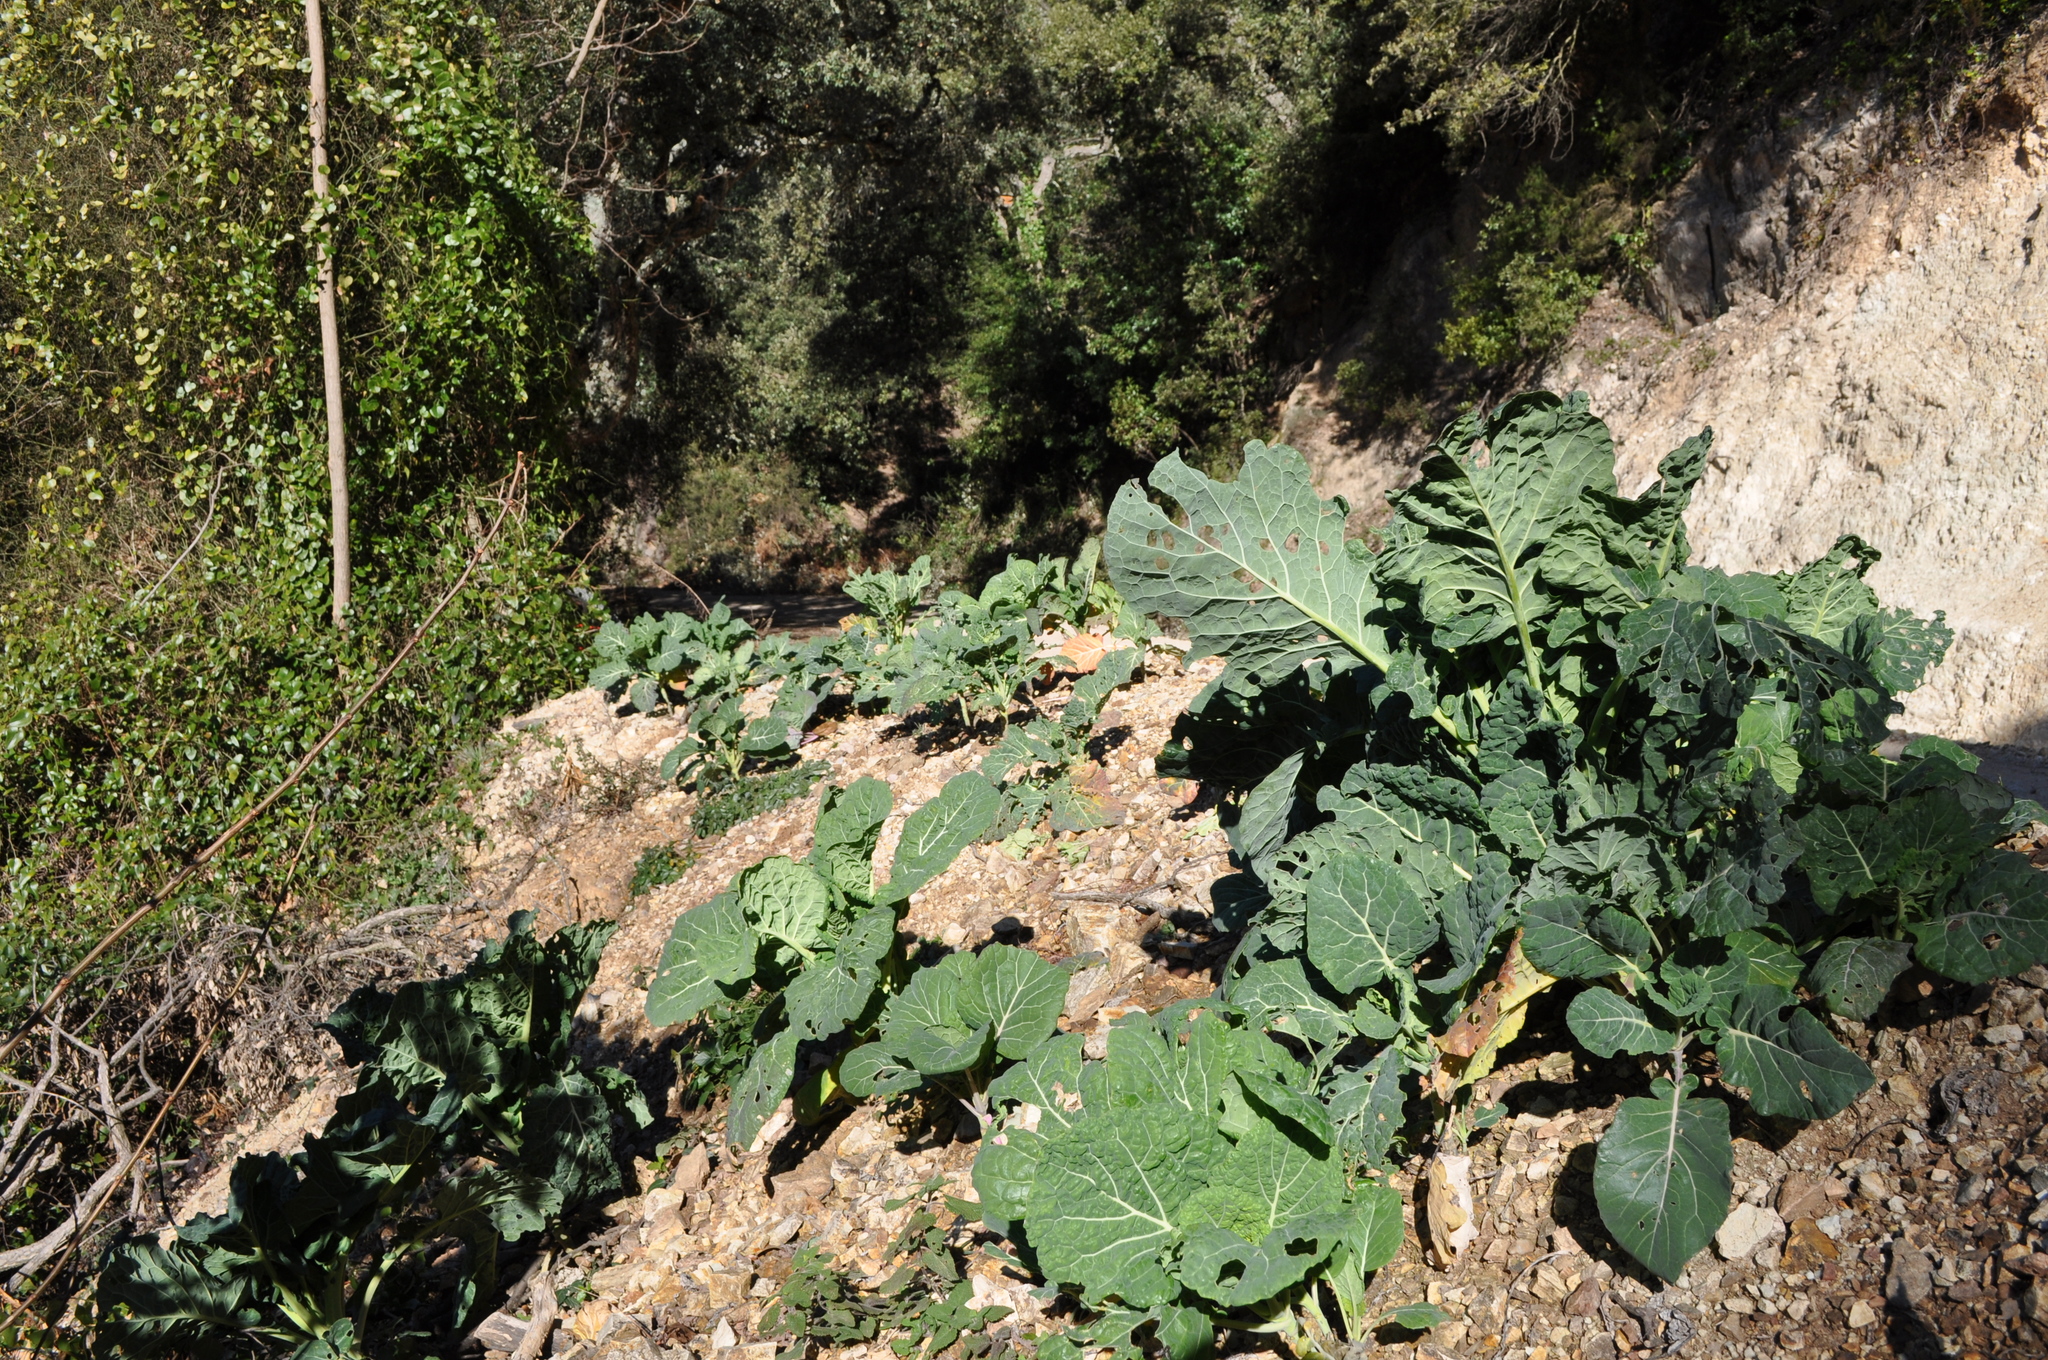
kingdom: Plantae
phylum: Tracheophyta
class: Magnoliopsida
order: Brassicales
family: Brassicaceae
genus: Brassica
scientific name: Brassica oleracea
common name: Cabbage
